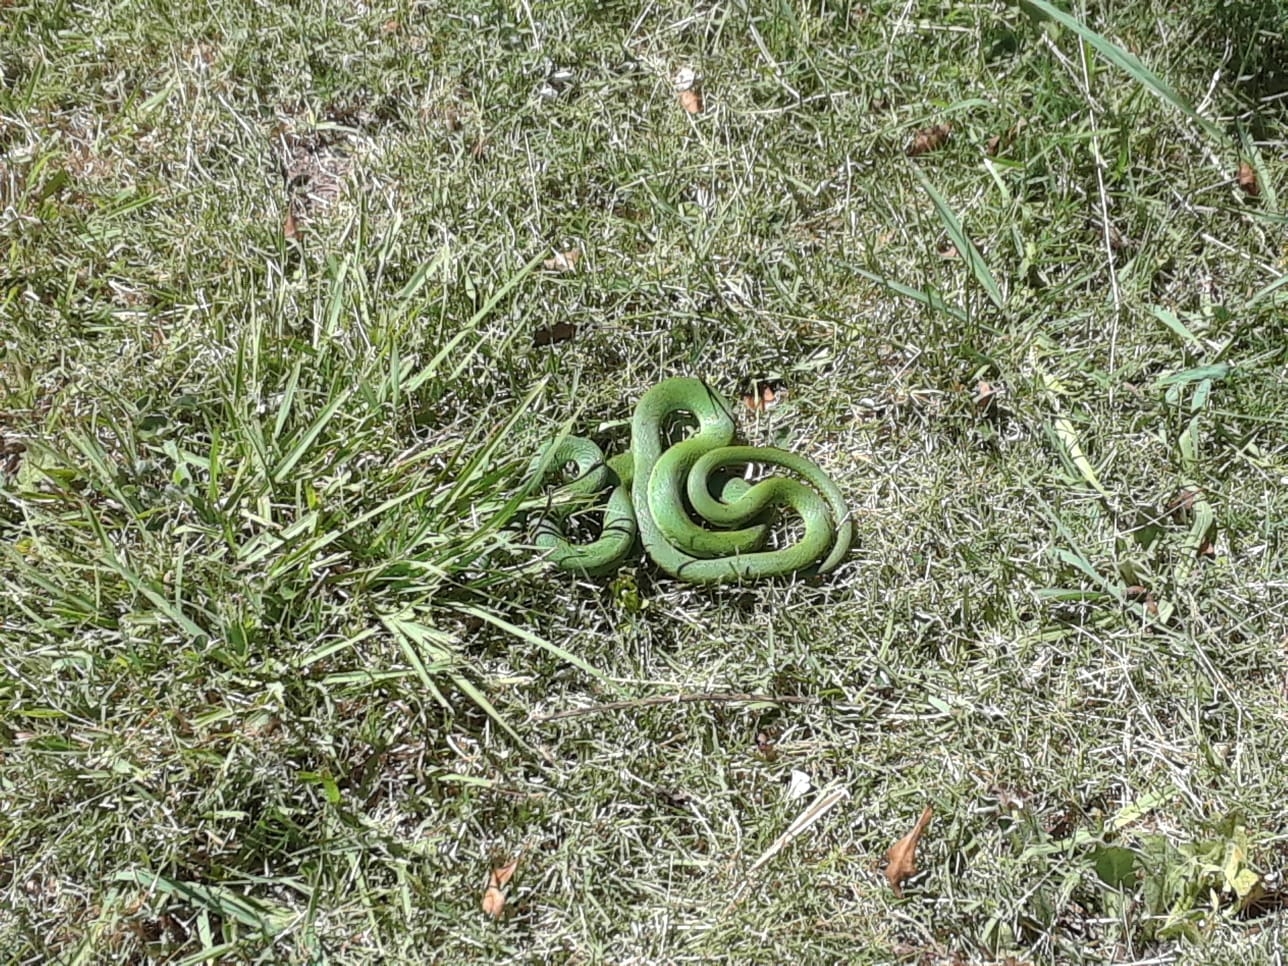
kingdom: Animalia
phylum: Chordata
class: Squamata
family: Colubridae
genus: Philodryas
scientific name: Philodryas aestiva
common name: Brazilian green racer
